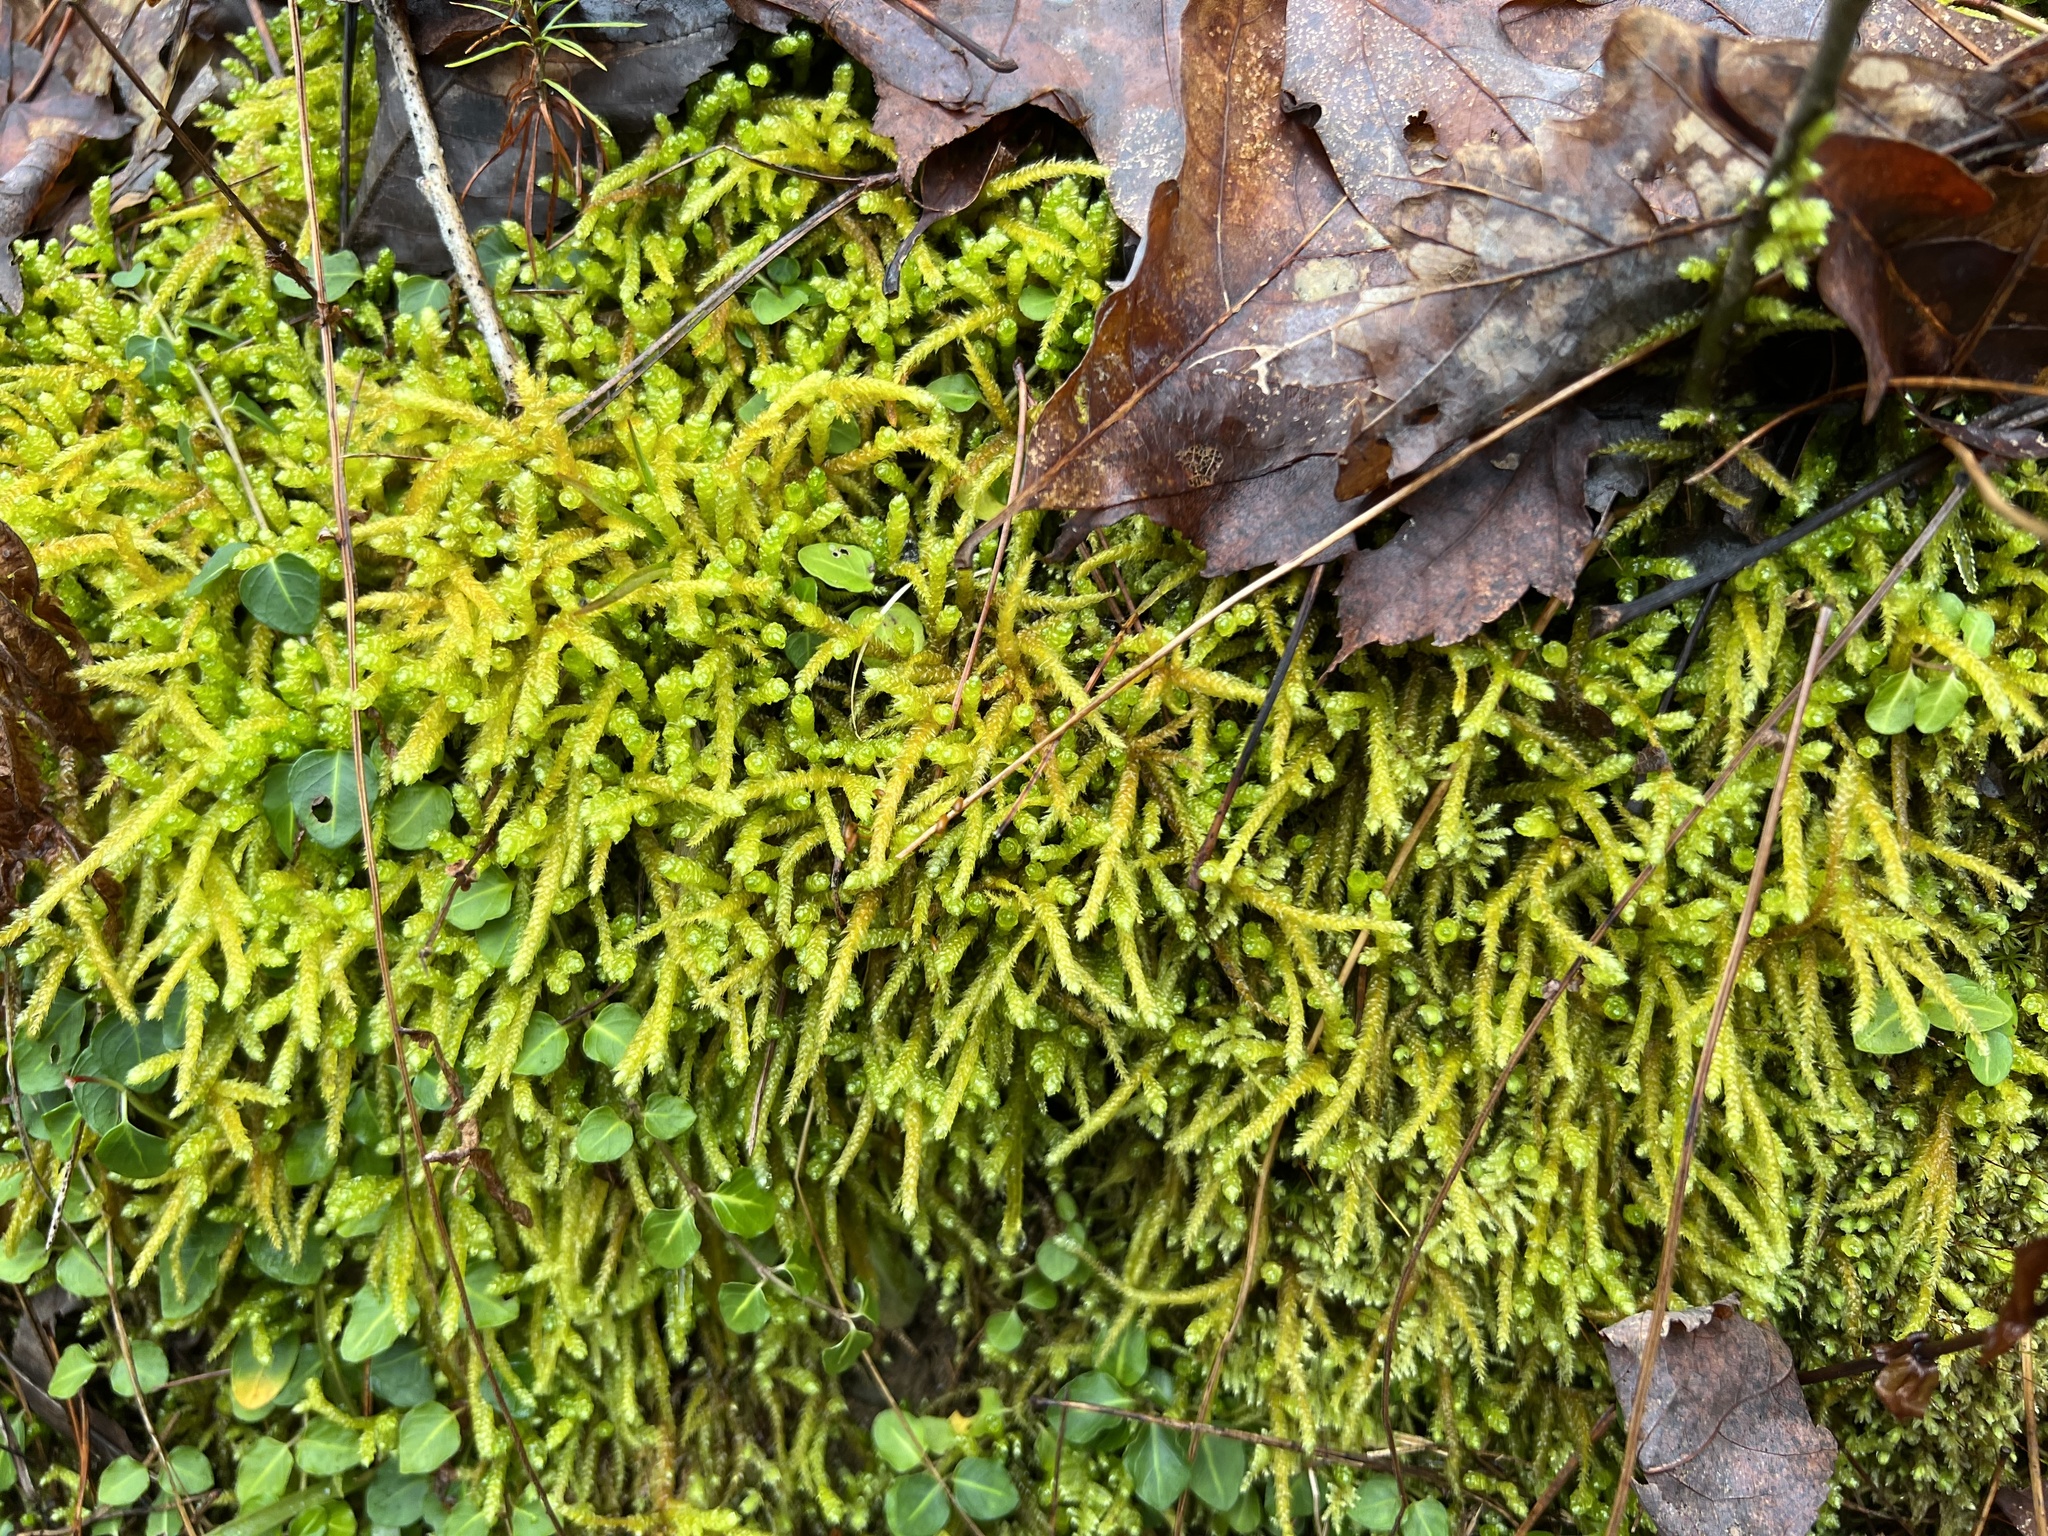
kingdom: Plantae
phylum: Bryophyta
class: Bryopsida
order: Hypnales
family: Brachytheciaceae
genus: Bryoandersonia
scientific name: Bryoandersonia illecebra
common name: Spoon-leaved moss
